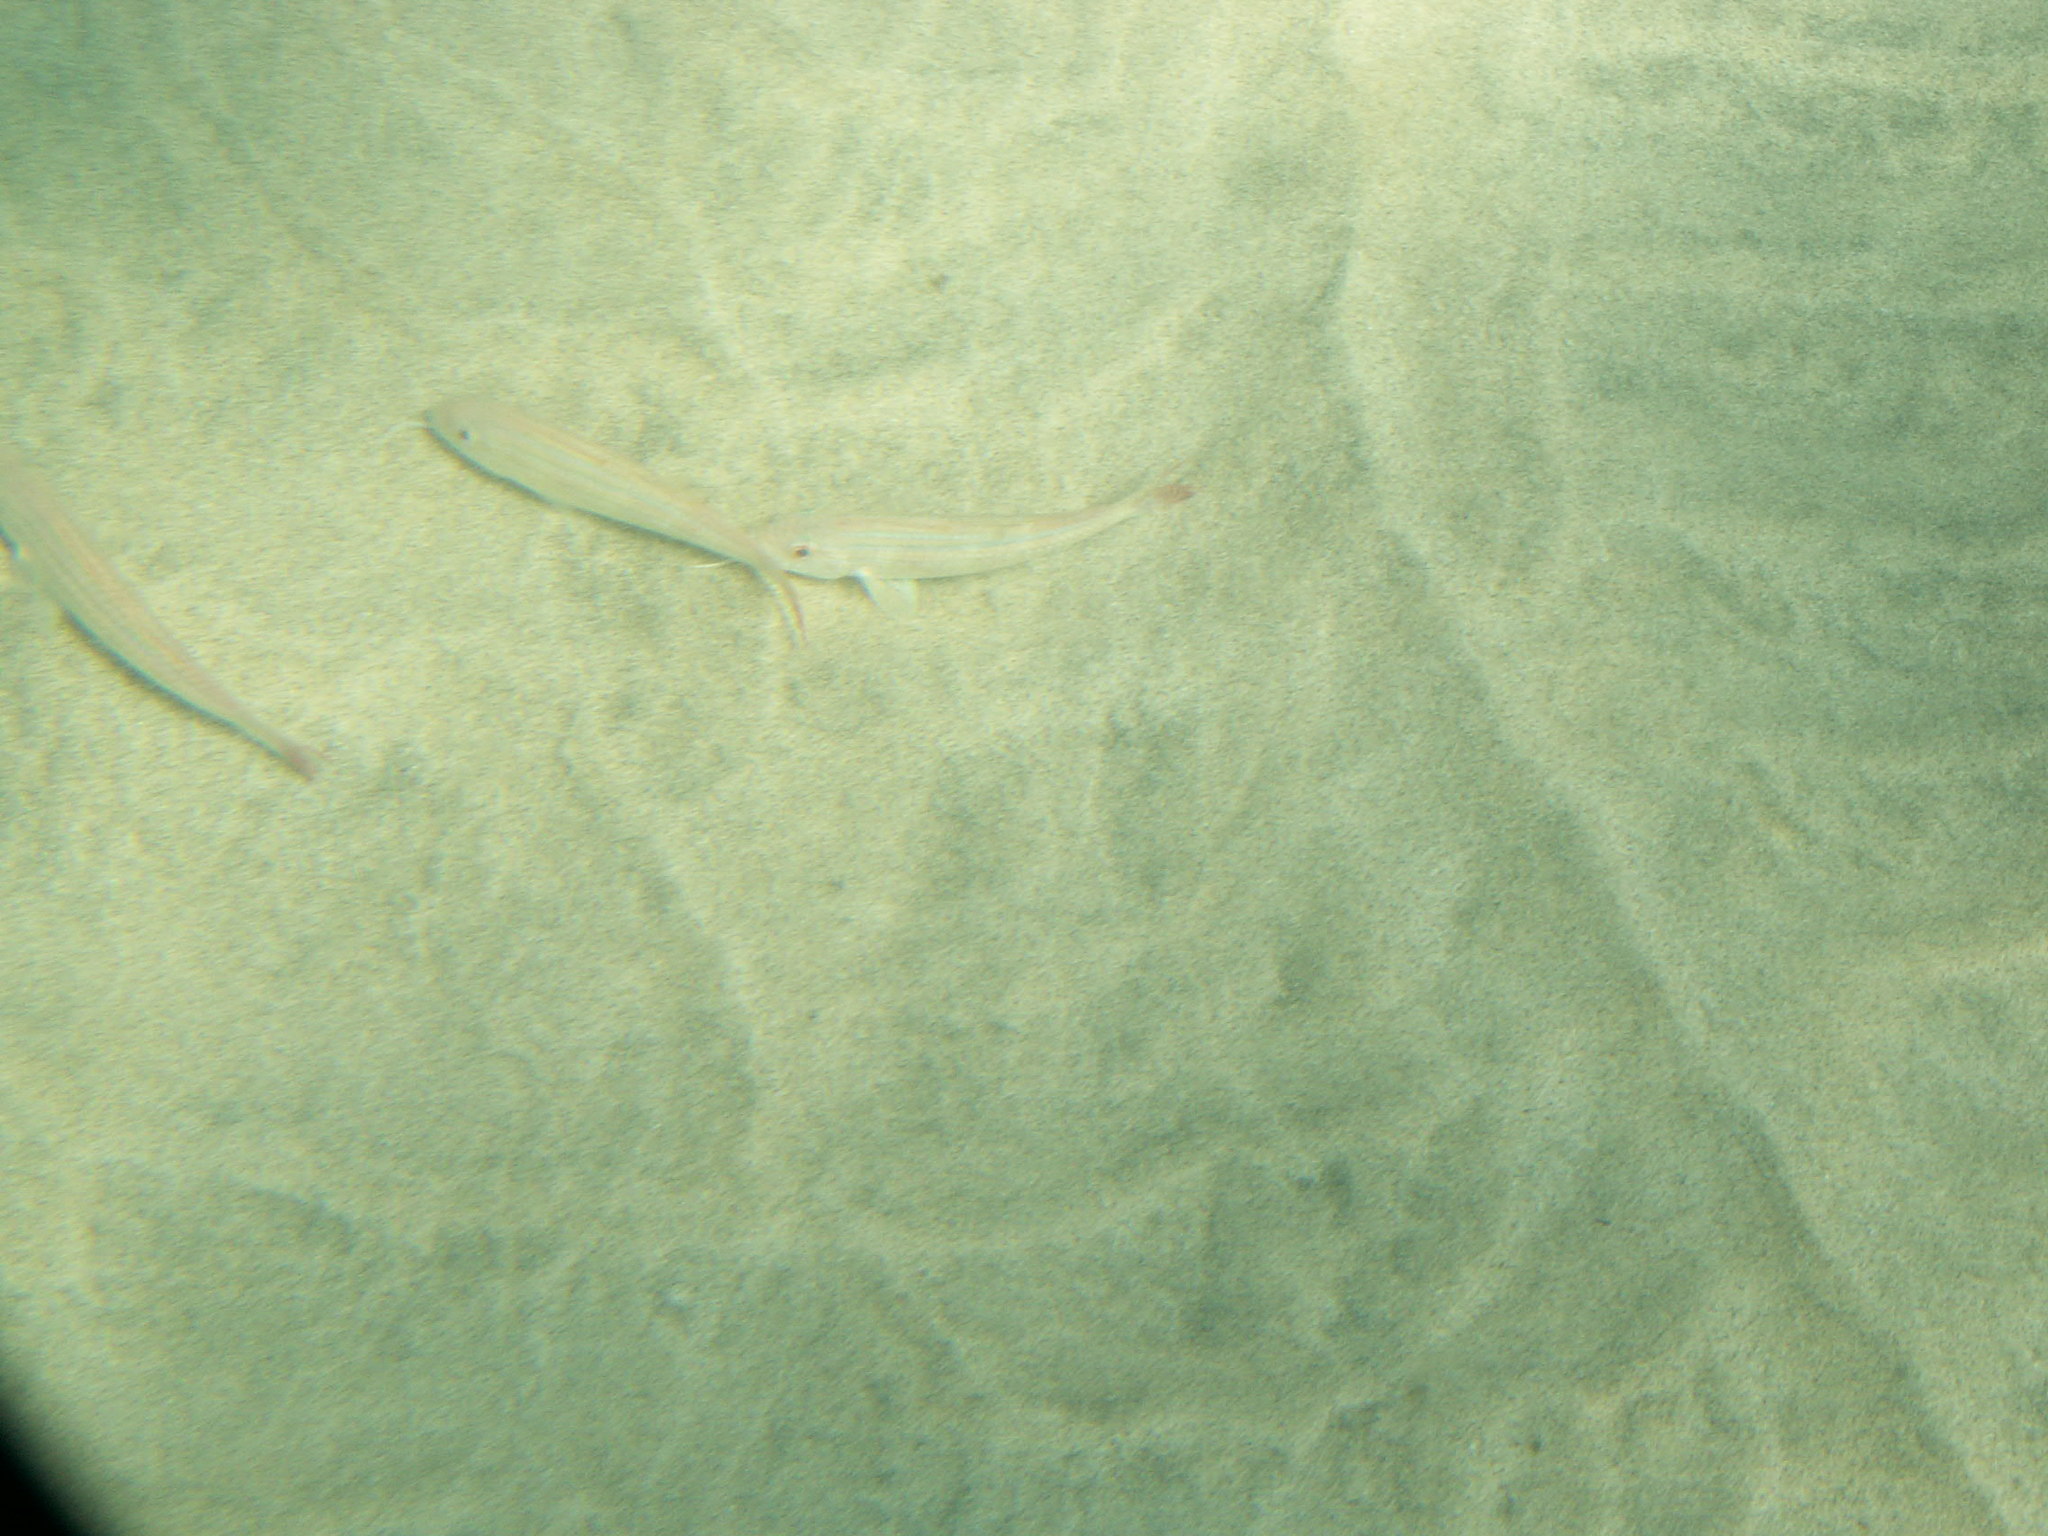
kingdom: Animalia
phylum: Chordata
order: Perciformes
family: Mullidae
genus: Pseudupeneus
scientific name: Pseudupeneus prayensis
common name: West african goatfish
